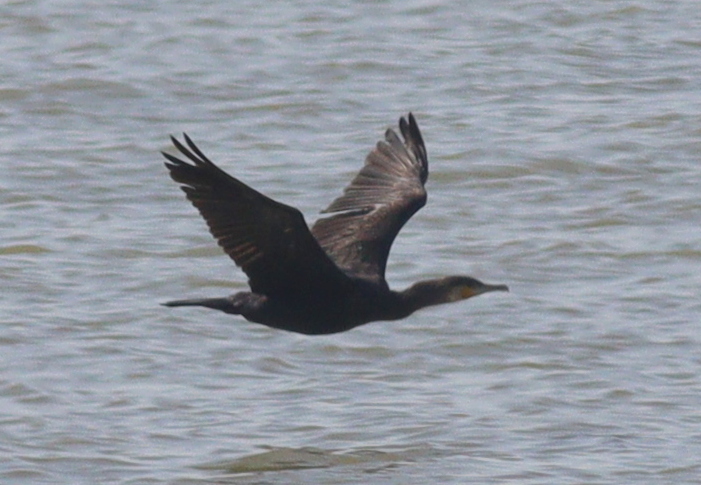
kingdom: Animalia
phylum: Chordata
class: Aves
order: Suliformes
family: Phalacrocoracidae
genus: Phalacrocorax
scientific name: Phalacrocorax carbo
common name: Great cormorant
